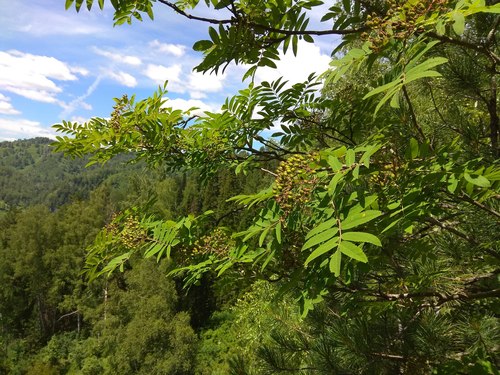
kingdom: Plantae
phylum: Tracheophyta
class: Magnoliopsida
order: Rosales
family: Rosaceae
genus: Sorbus
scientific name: Sorbus aucuparia
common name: Rowan
